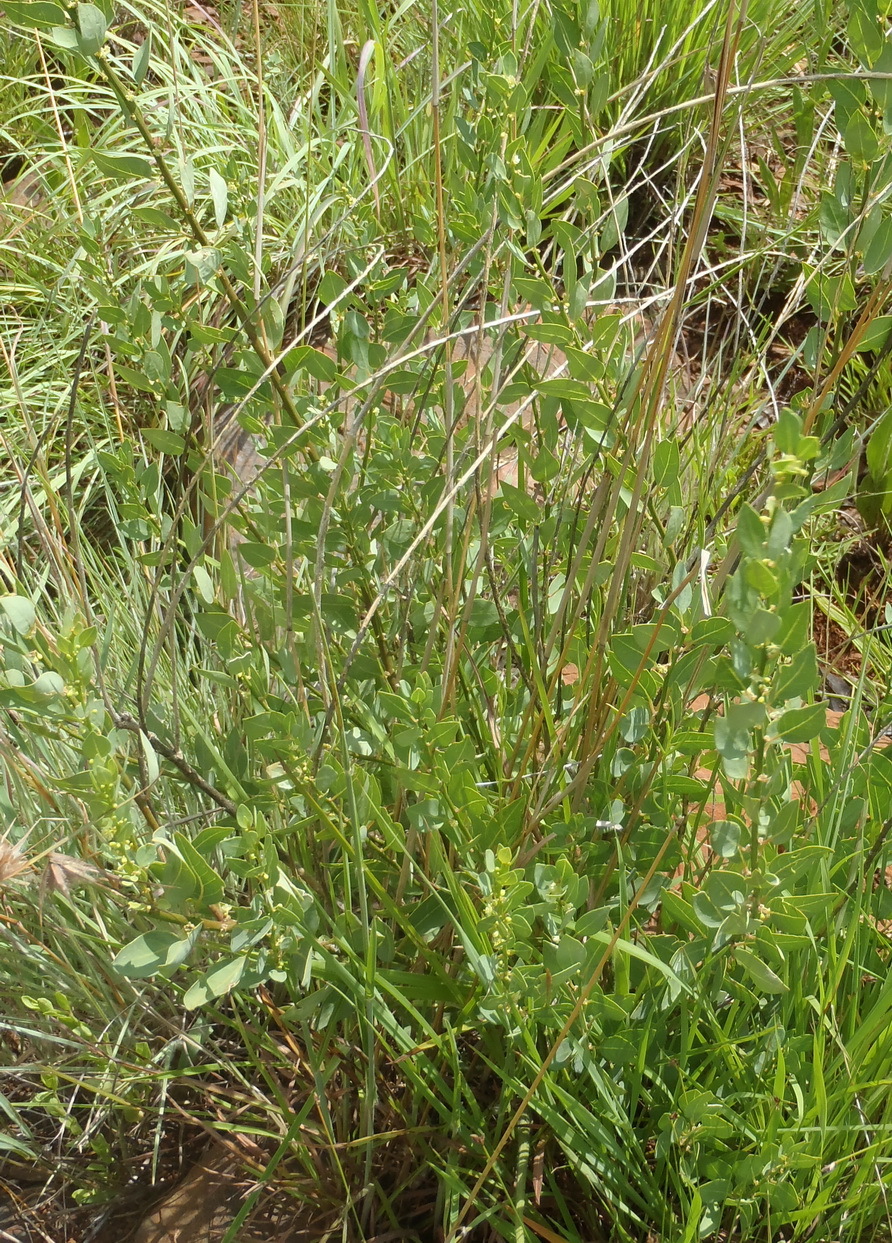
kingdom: Plantae
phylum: Tracheophyta
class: Magnoliopsida
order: Malpighiales
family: Peraceae
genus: Clutia
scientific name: Clutia pulchella
